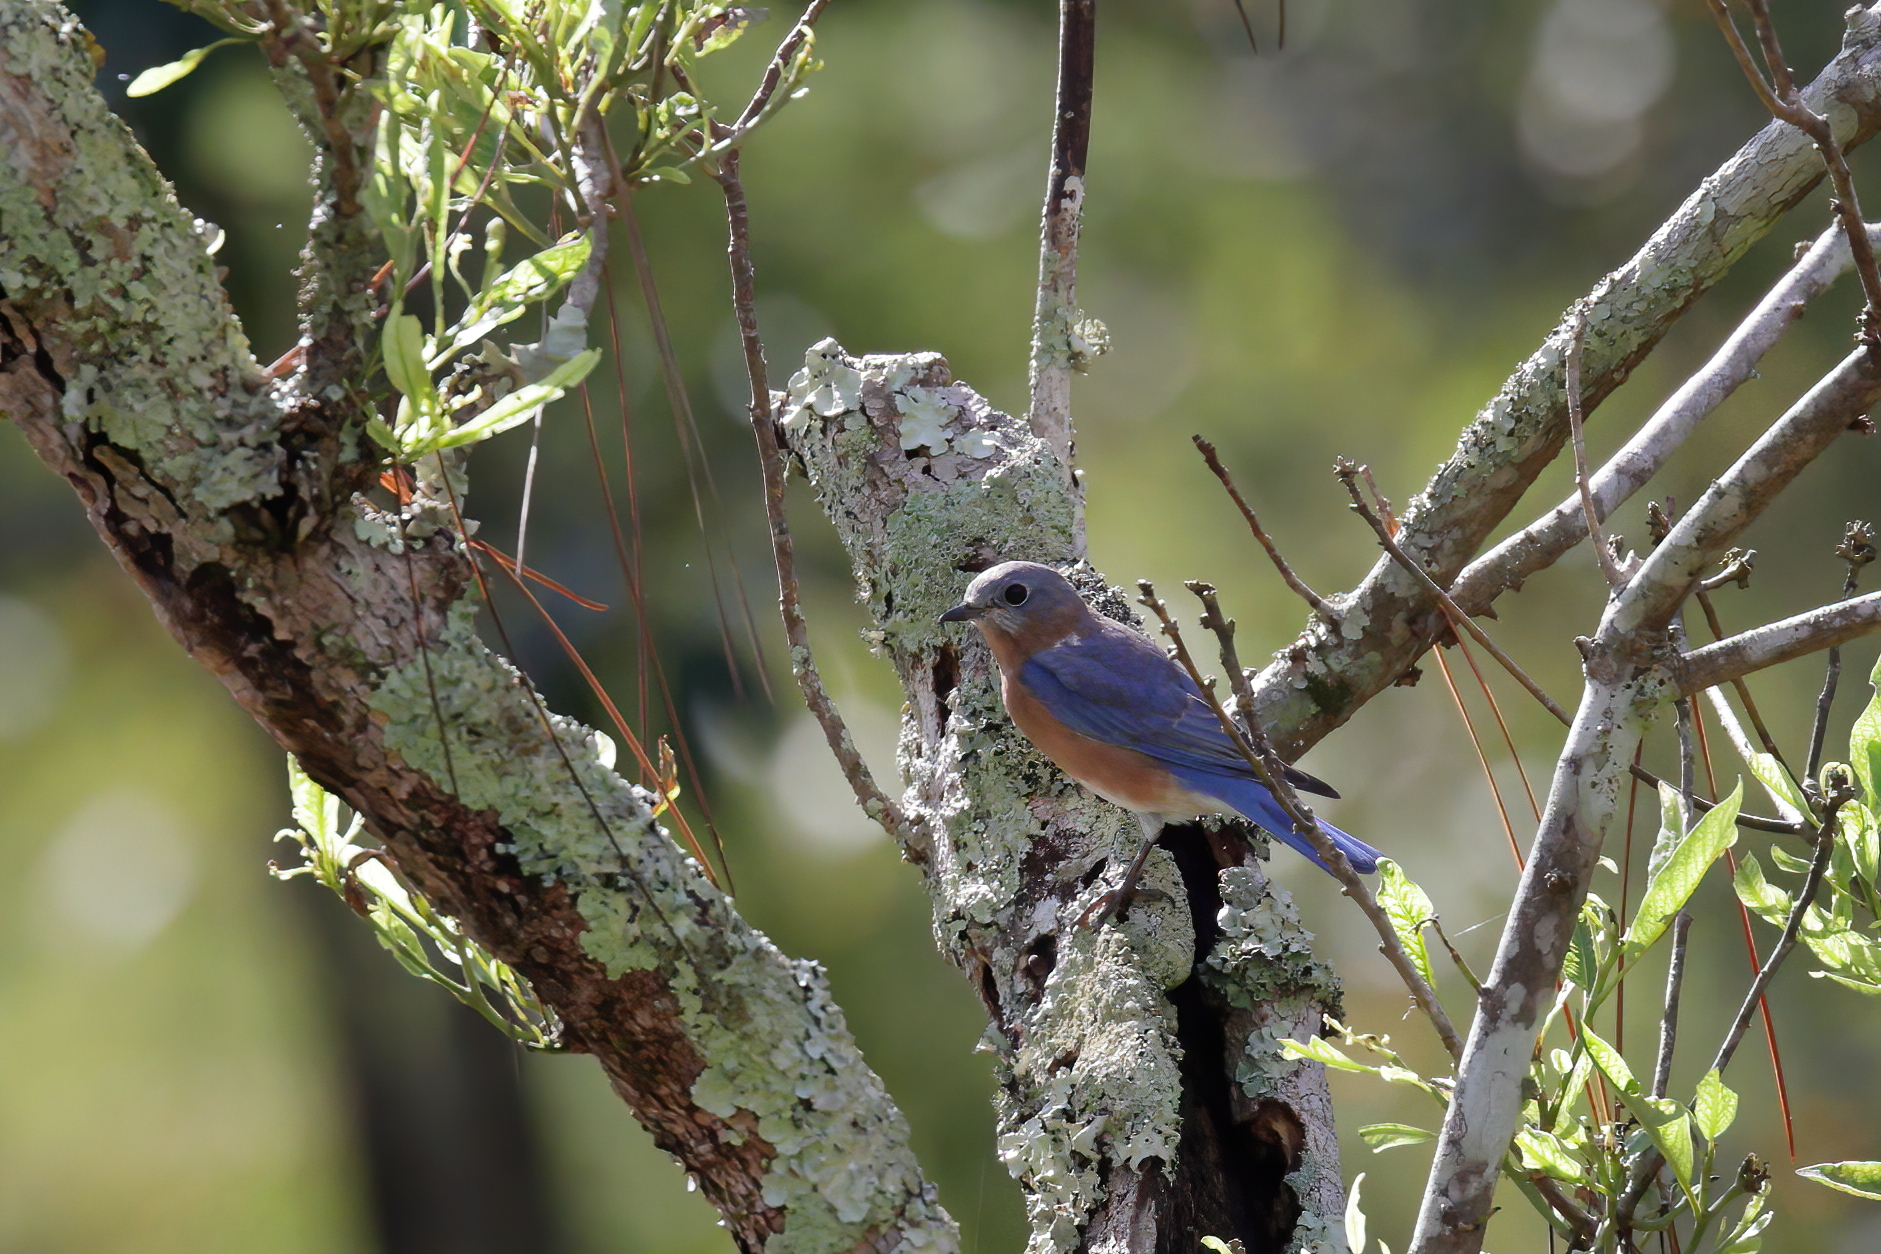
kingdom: Animalia
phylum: Chordata
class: Aves
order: Passeriformes
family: Turdidae
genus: Sialia
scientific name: Sialia sialis
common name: Eastern bluebird
